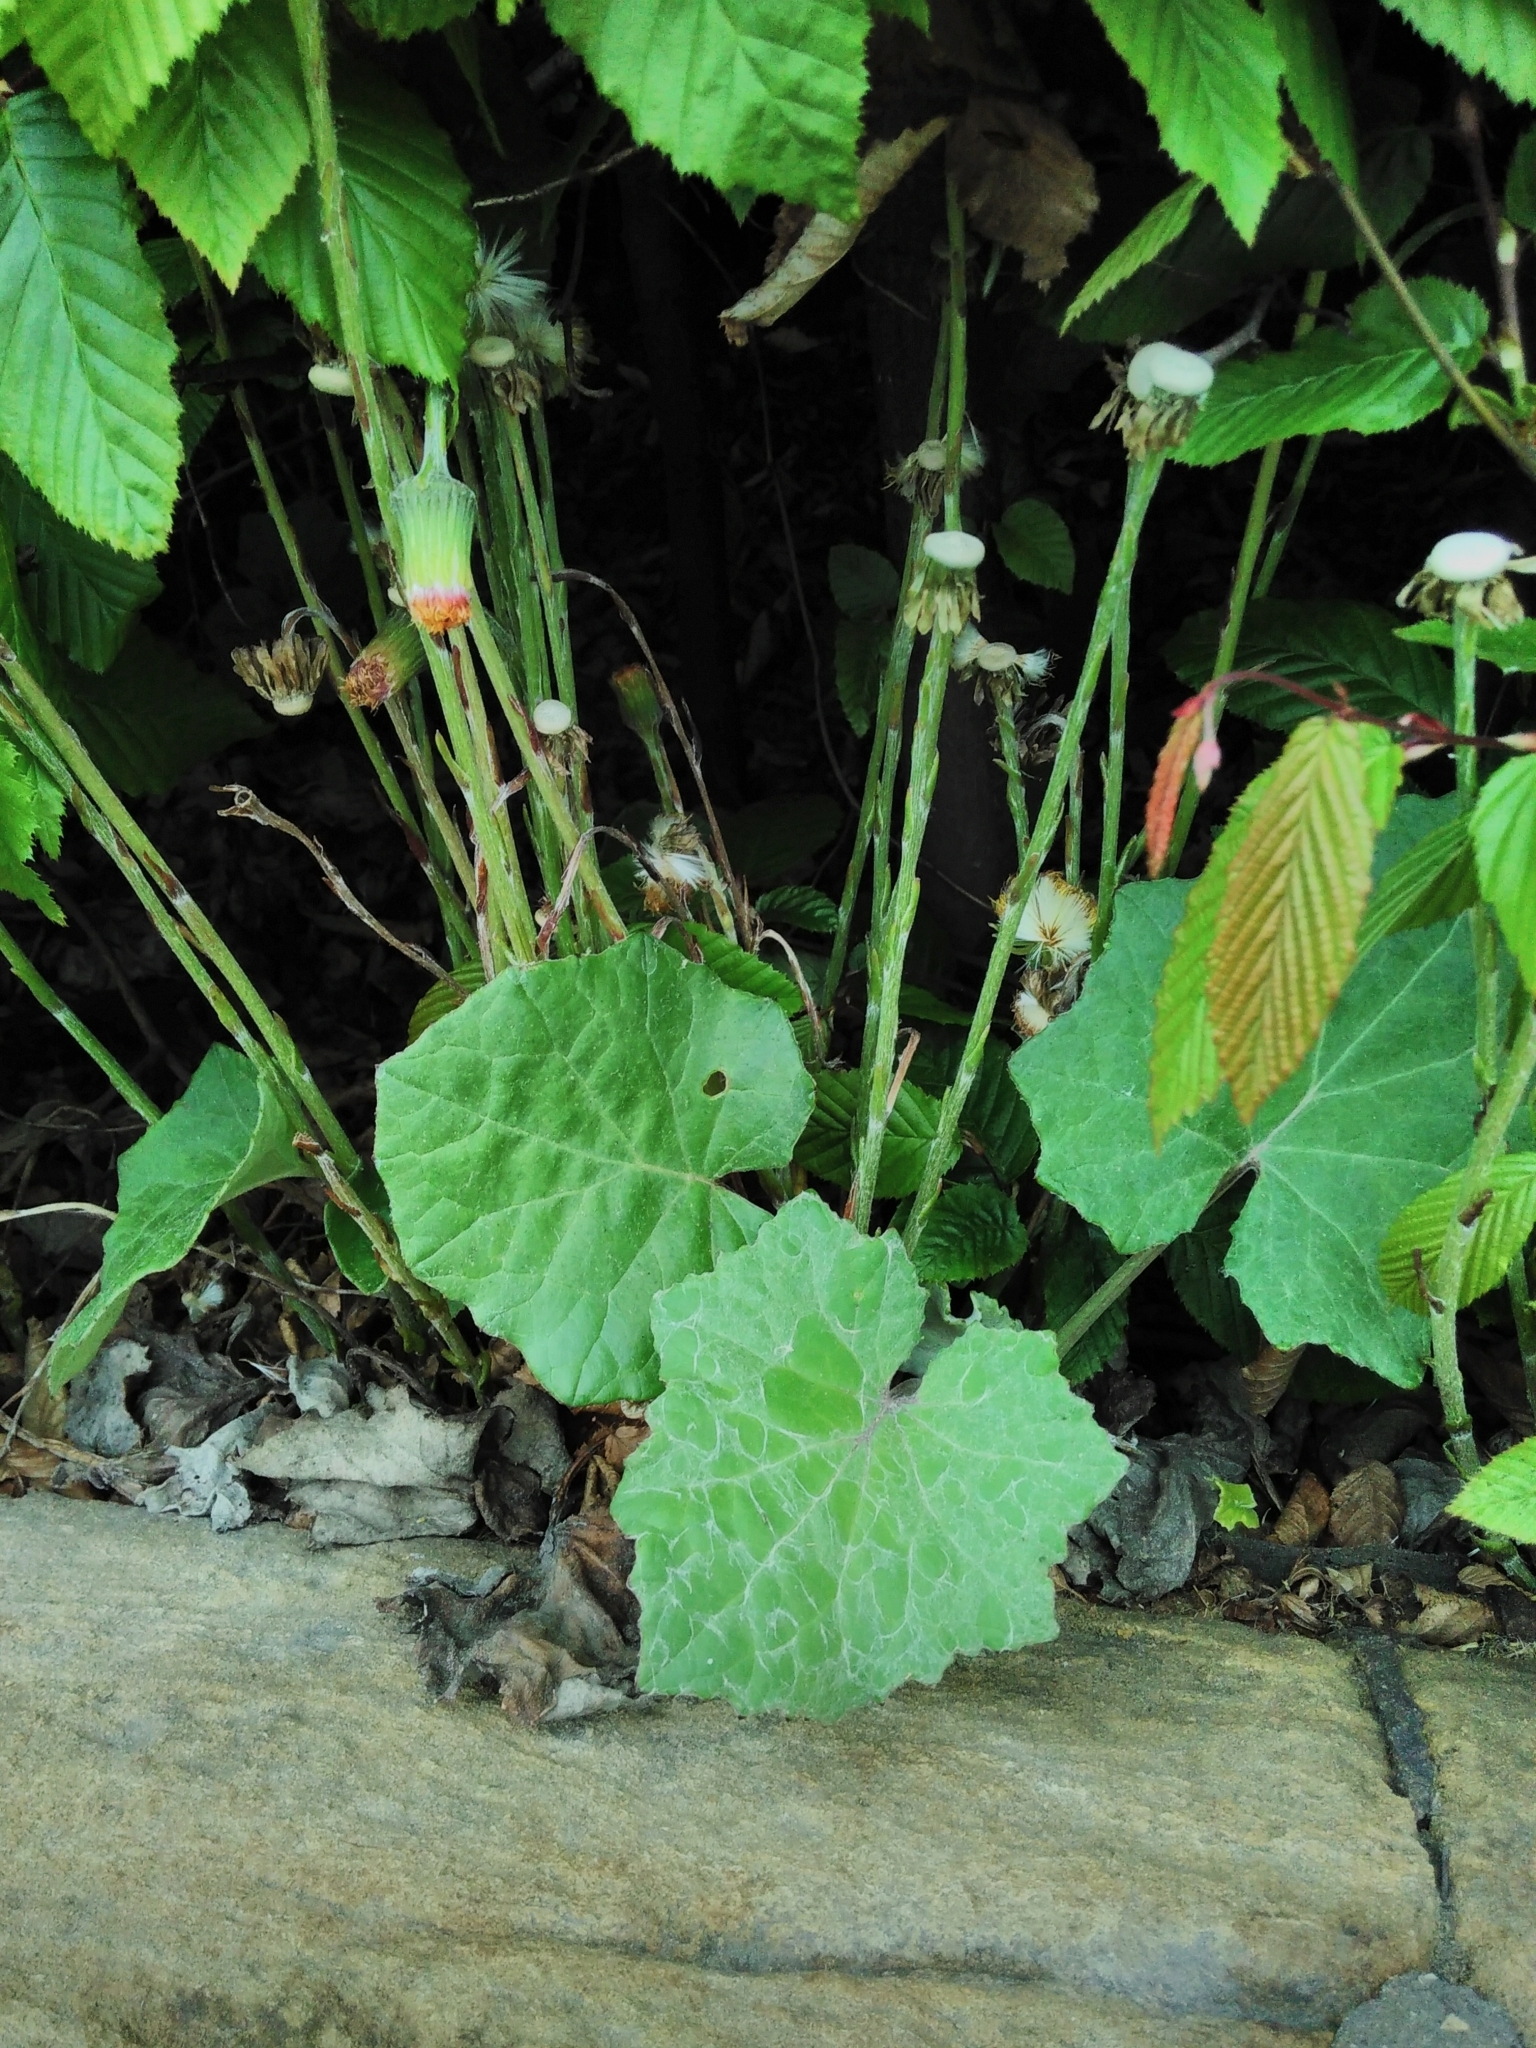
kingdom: Plantae
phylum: Tracheophyta
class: Magnoliopsida
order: Asterales
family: Asteraceae
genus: Tussilago
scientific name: Tussilago farfara
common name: Coltsfoot
